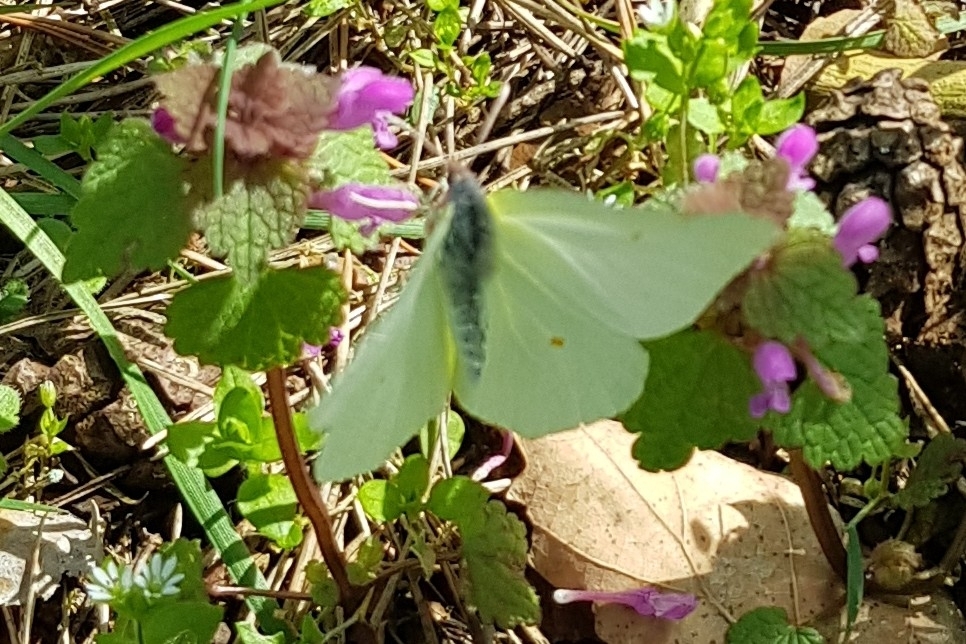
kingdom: Animalia
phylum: Arthropoda
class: Insecta
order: Lepidoptera
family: Pieridae
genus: Gonepteryx
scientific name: Gonepteryx rhamni
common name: Brimstone
